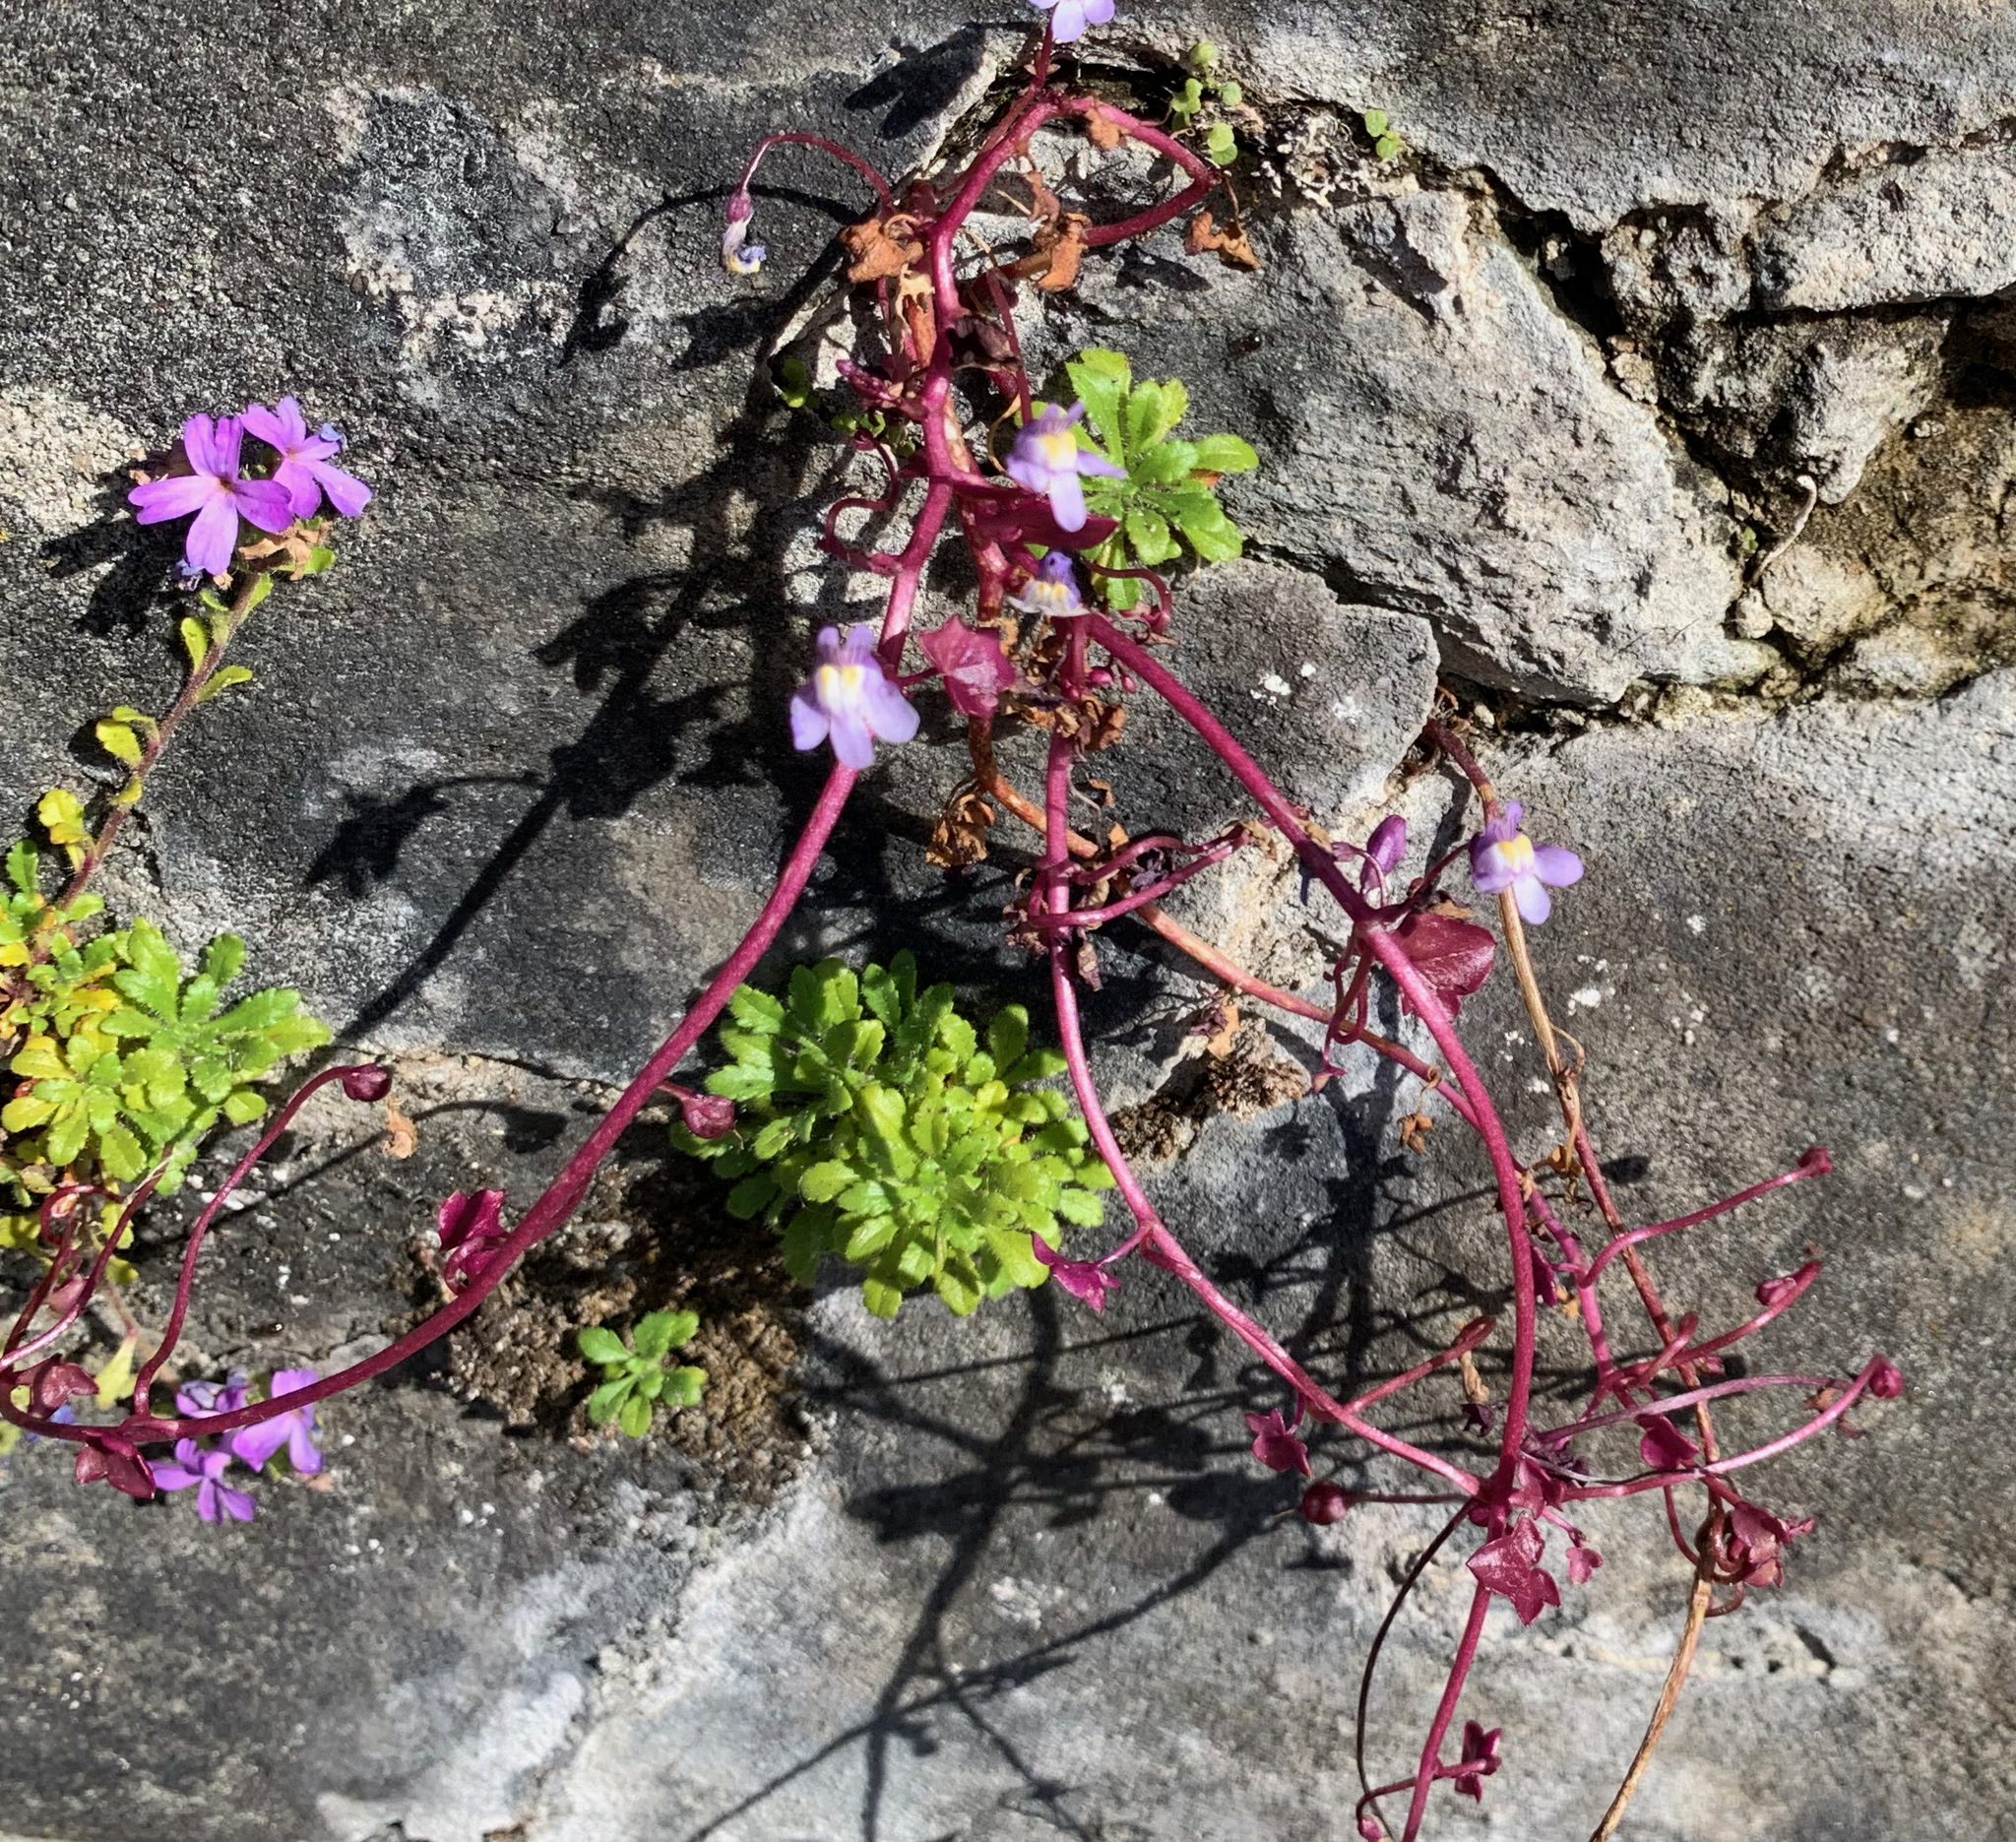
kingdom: Plantae
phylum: Tracheophyta
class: Magnoliopsida
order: Lamiales
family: Plantaginaceae
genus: Cymbalaria
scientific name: Cymbalaria muralis
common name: Ivy-leaved toadflax
